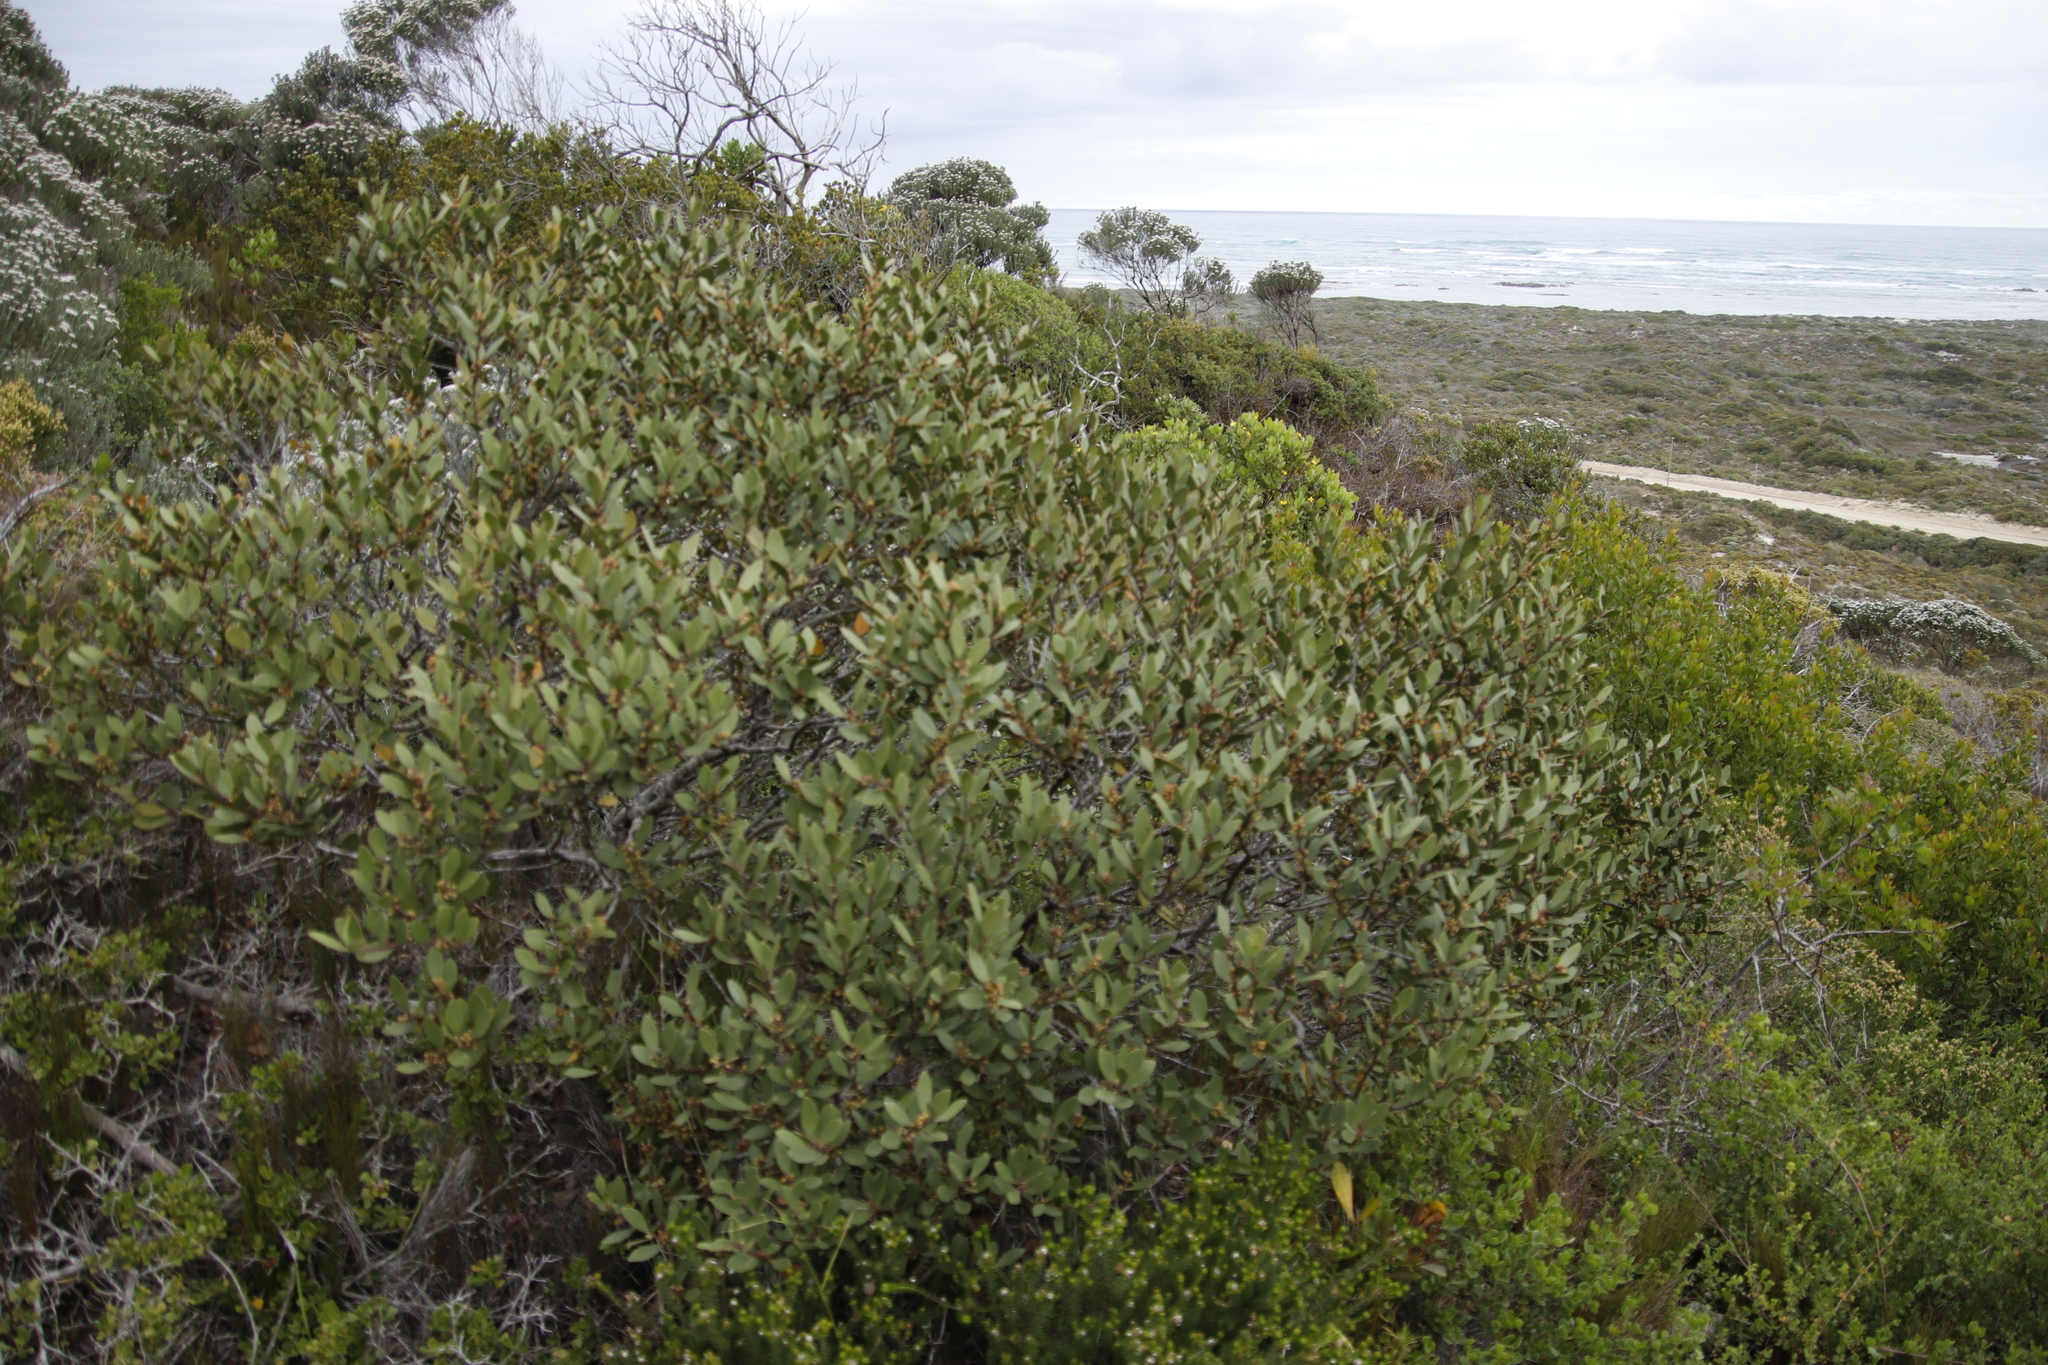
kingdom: Plantae
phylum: Tracheophyta
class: Magnoliopsida
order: Celastrales
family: Celastraceae
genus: Pterocelastrus
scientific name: Pterocelastrus tricuspidatus
